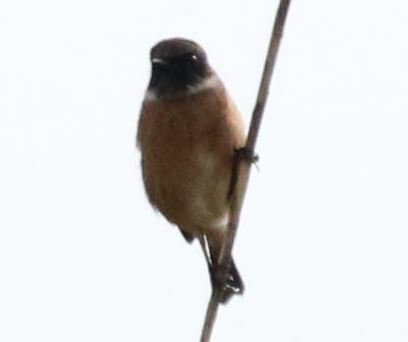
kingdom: Animalia
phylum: Chordata
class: Aves
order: Passeriformes
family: Muscicapidae
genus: Saxicola
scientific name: Saxicola rubicola
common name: European stonechat
